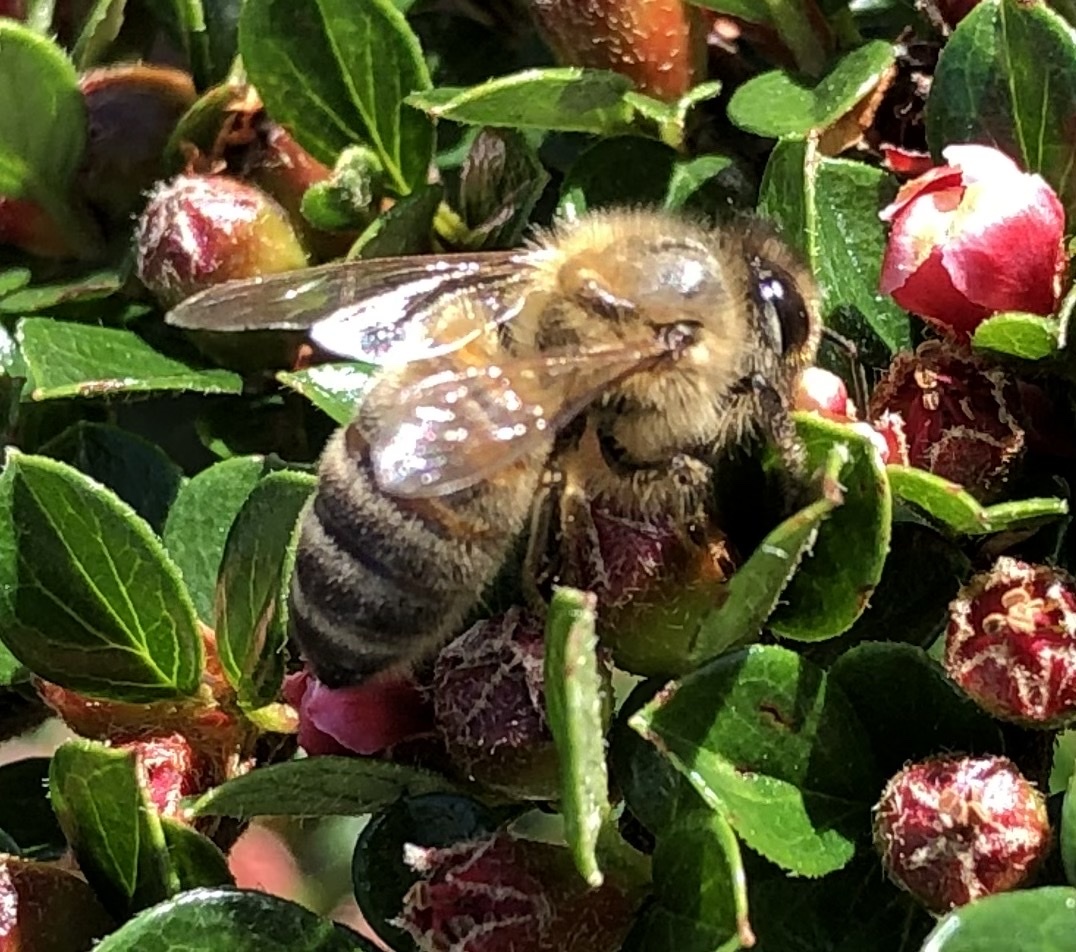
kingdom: Animalia
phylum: Arthropoda
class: Insecta
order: Hymenoptera
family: Apidae
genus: Apis
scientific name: Apis mellifera
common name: Honey bee
